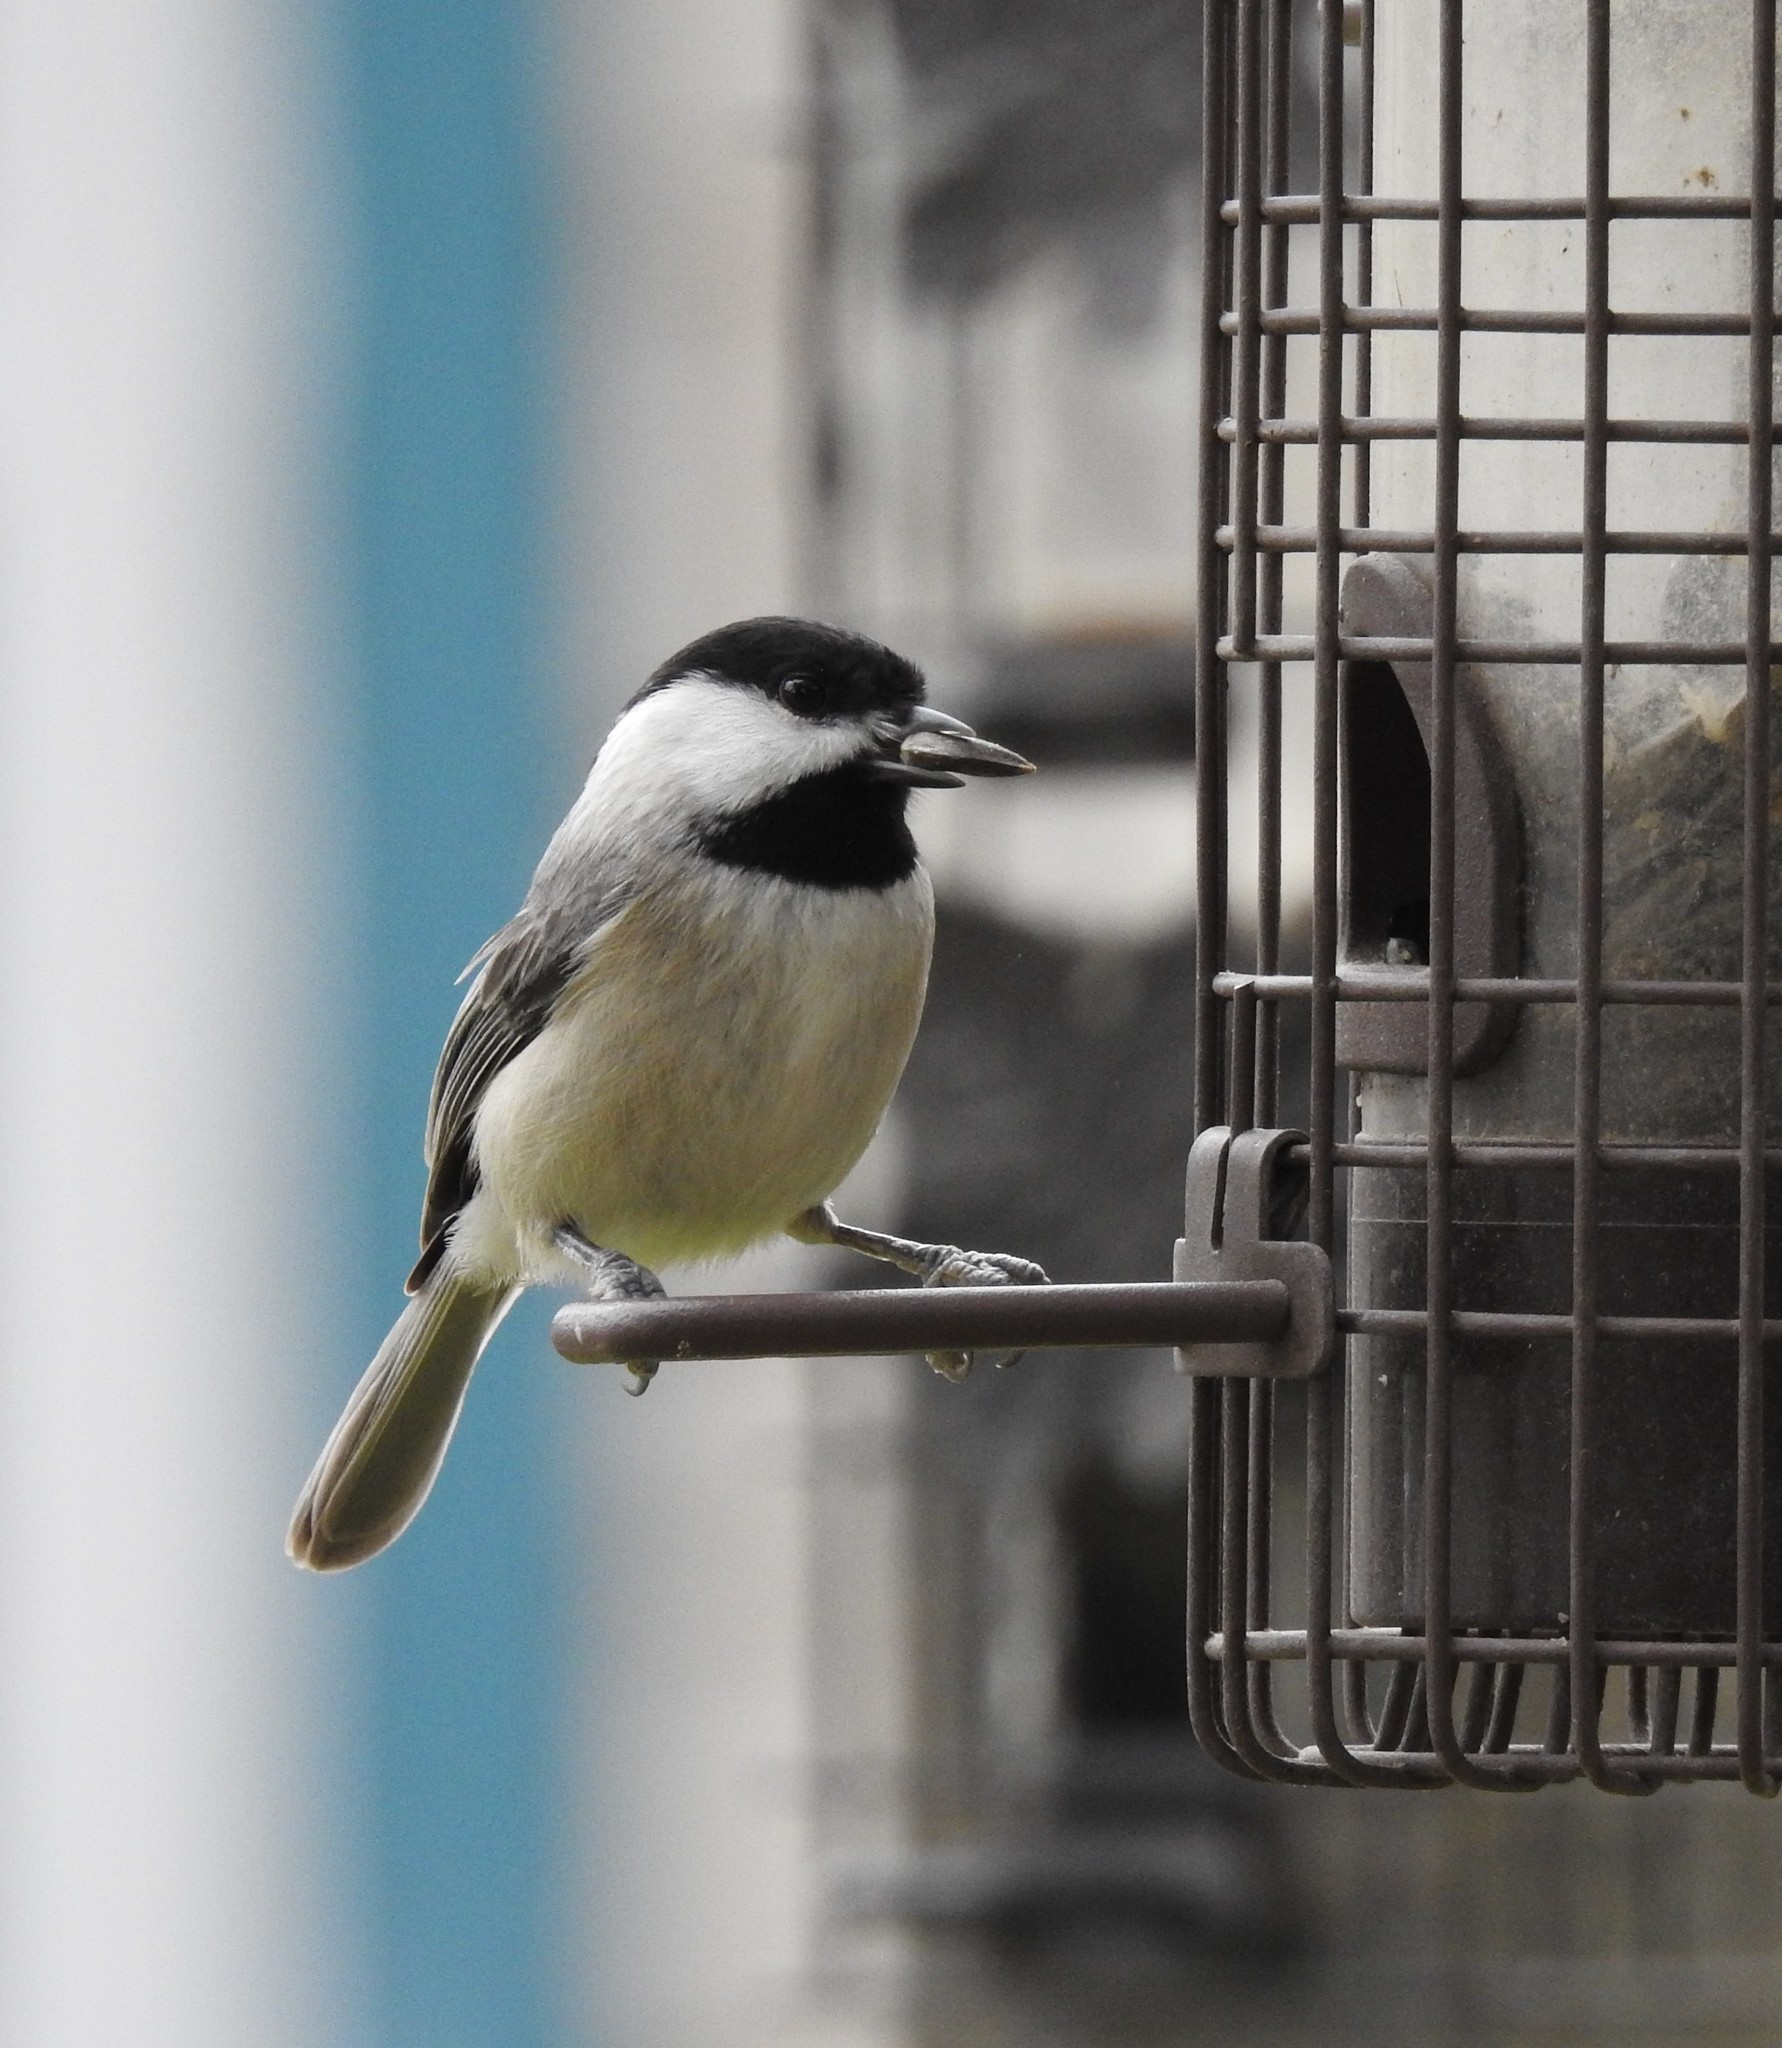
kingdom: Animalia
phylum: Chordata
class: Aves
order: Passeriformes
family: Paridae
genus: Poecile
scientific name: Poecile carolinensis
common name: Carolina chickadee
